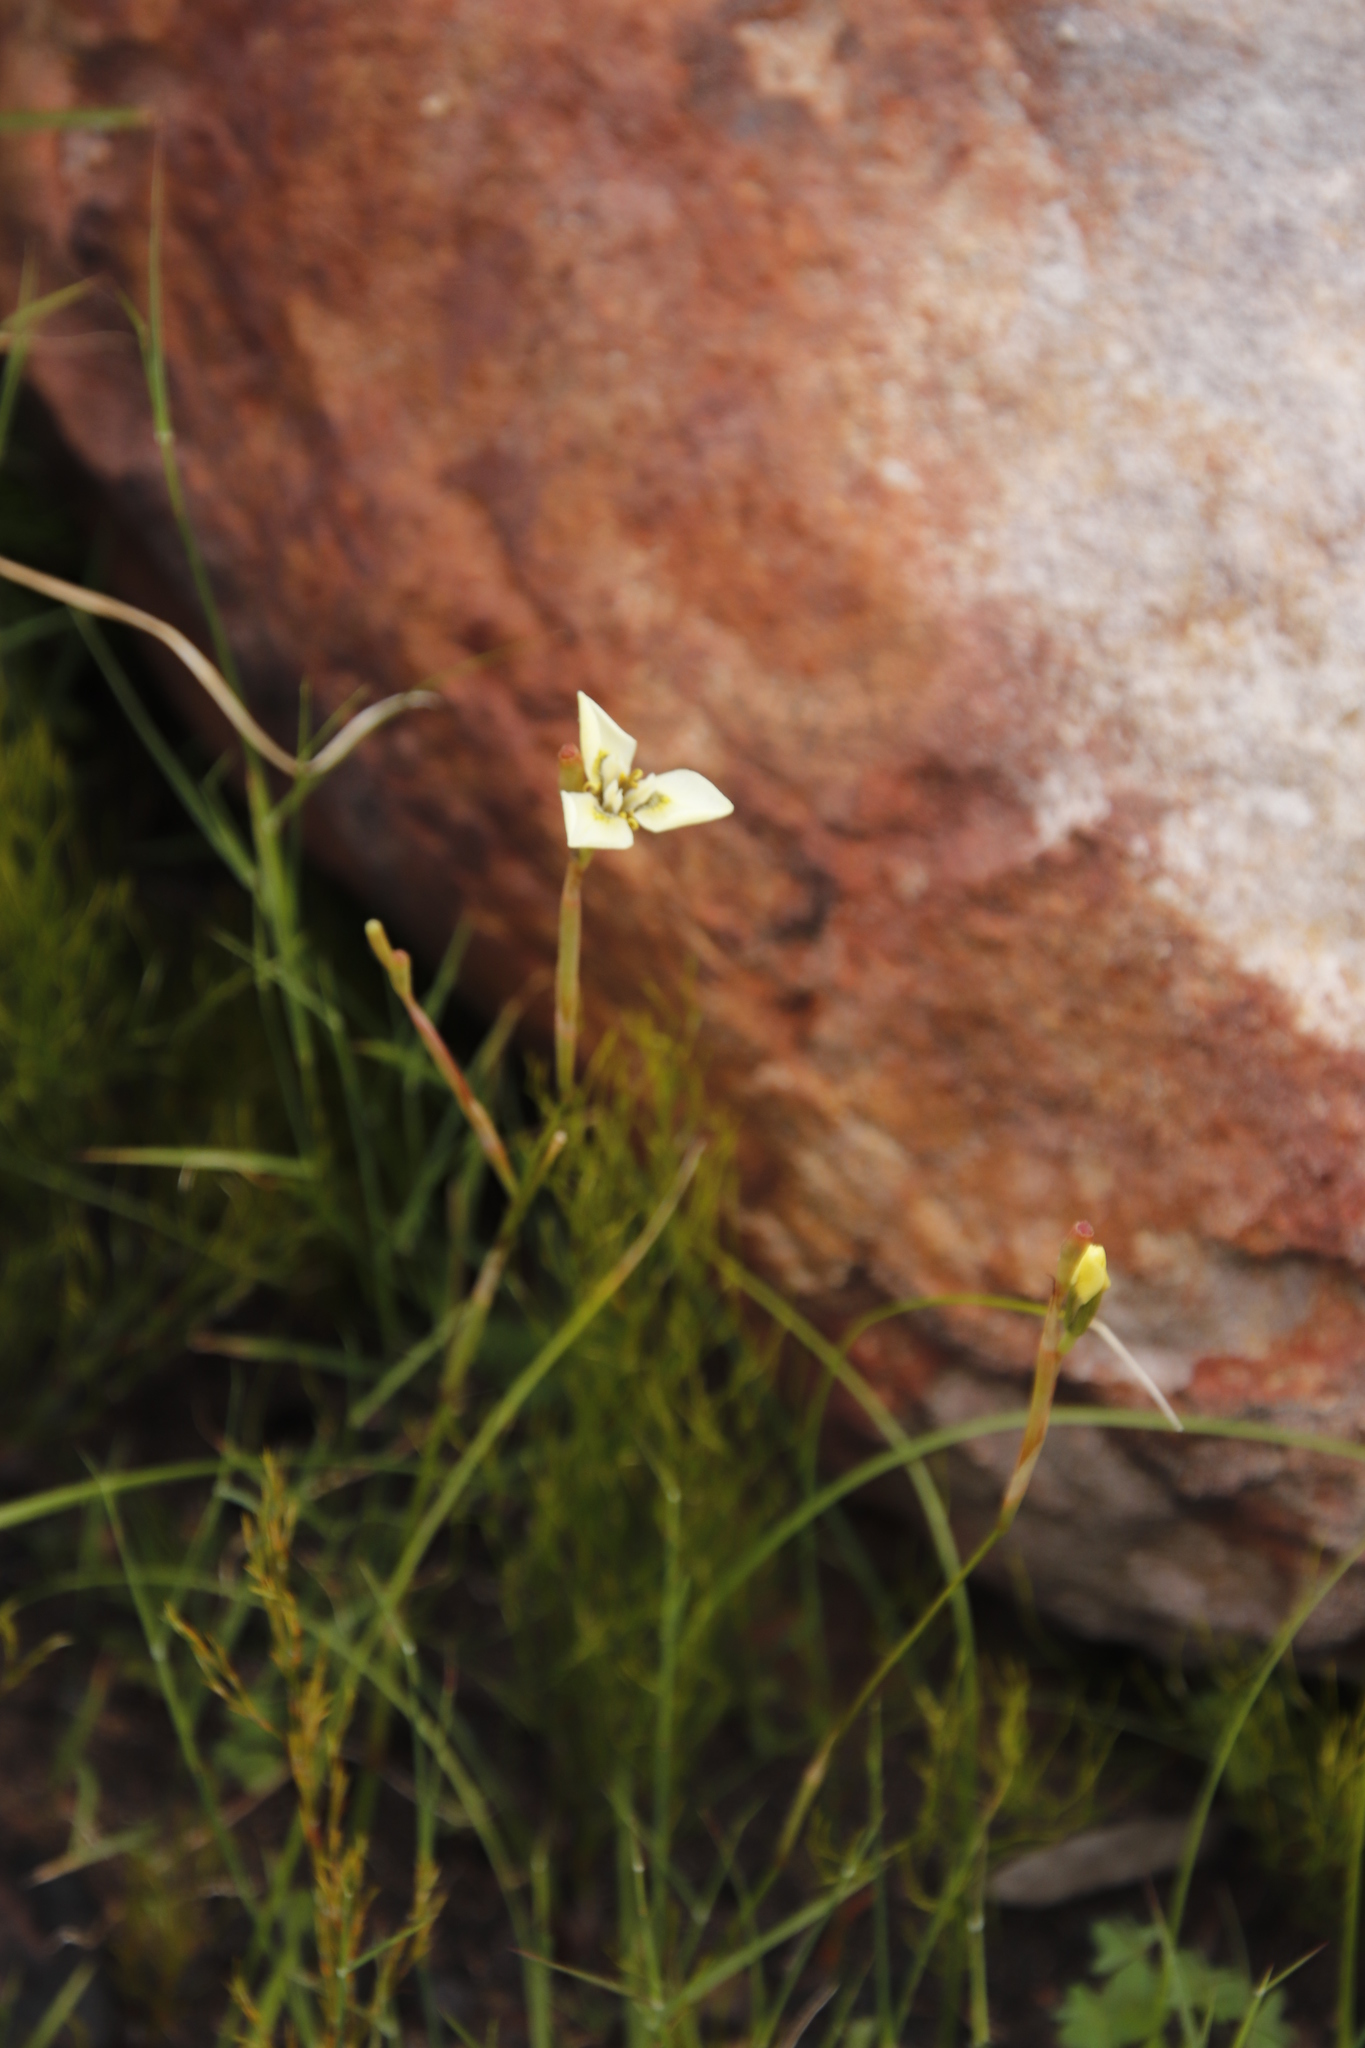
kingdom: Plantae
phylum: Tracheophyta
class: Liliopsida
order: Asparagales
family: Iridaceae
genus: Moraea
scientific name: Moraea tricuspidata
